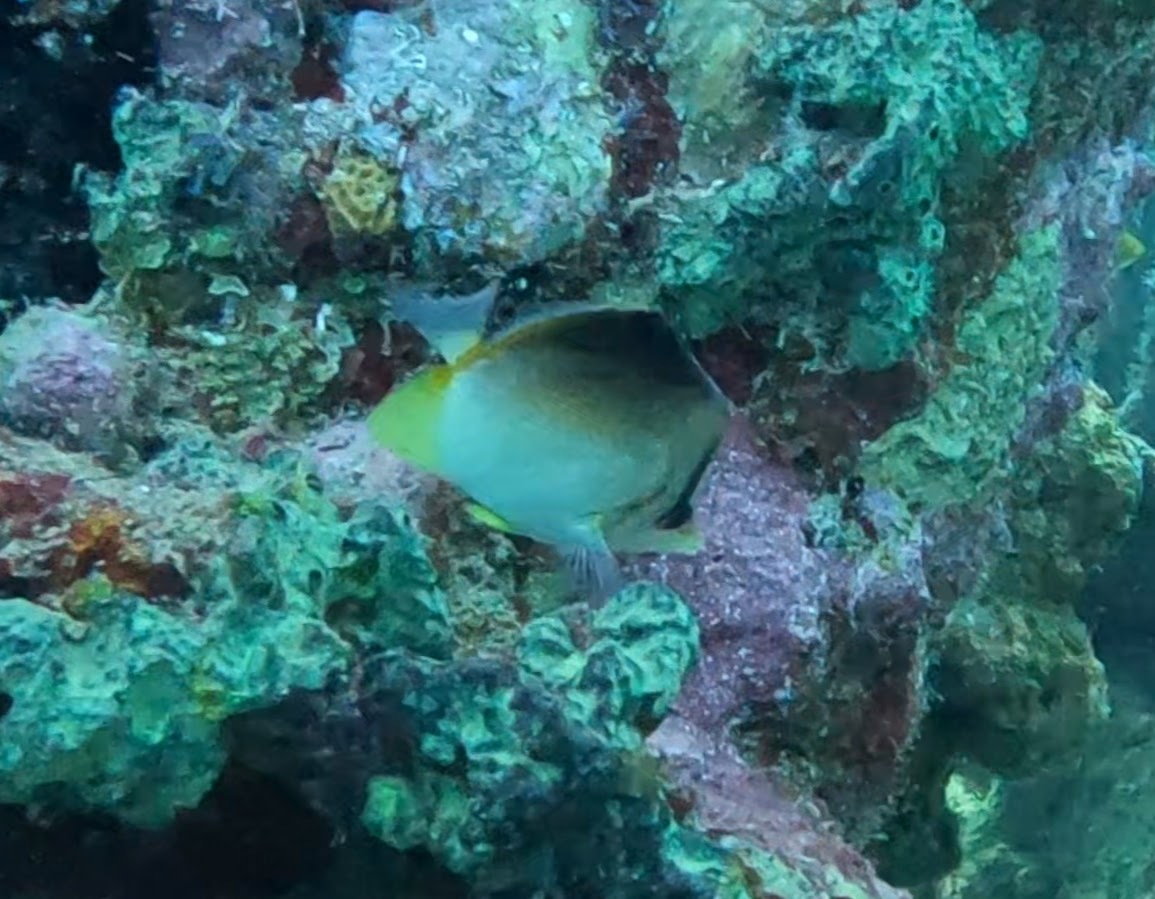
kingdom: Animalia
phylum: Chordata
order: Perciformes
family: Chaetodontidae
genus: Prognathodes
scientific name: Prognathodes aculeatus
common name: Longsnout butterflyfish
